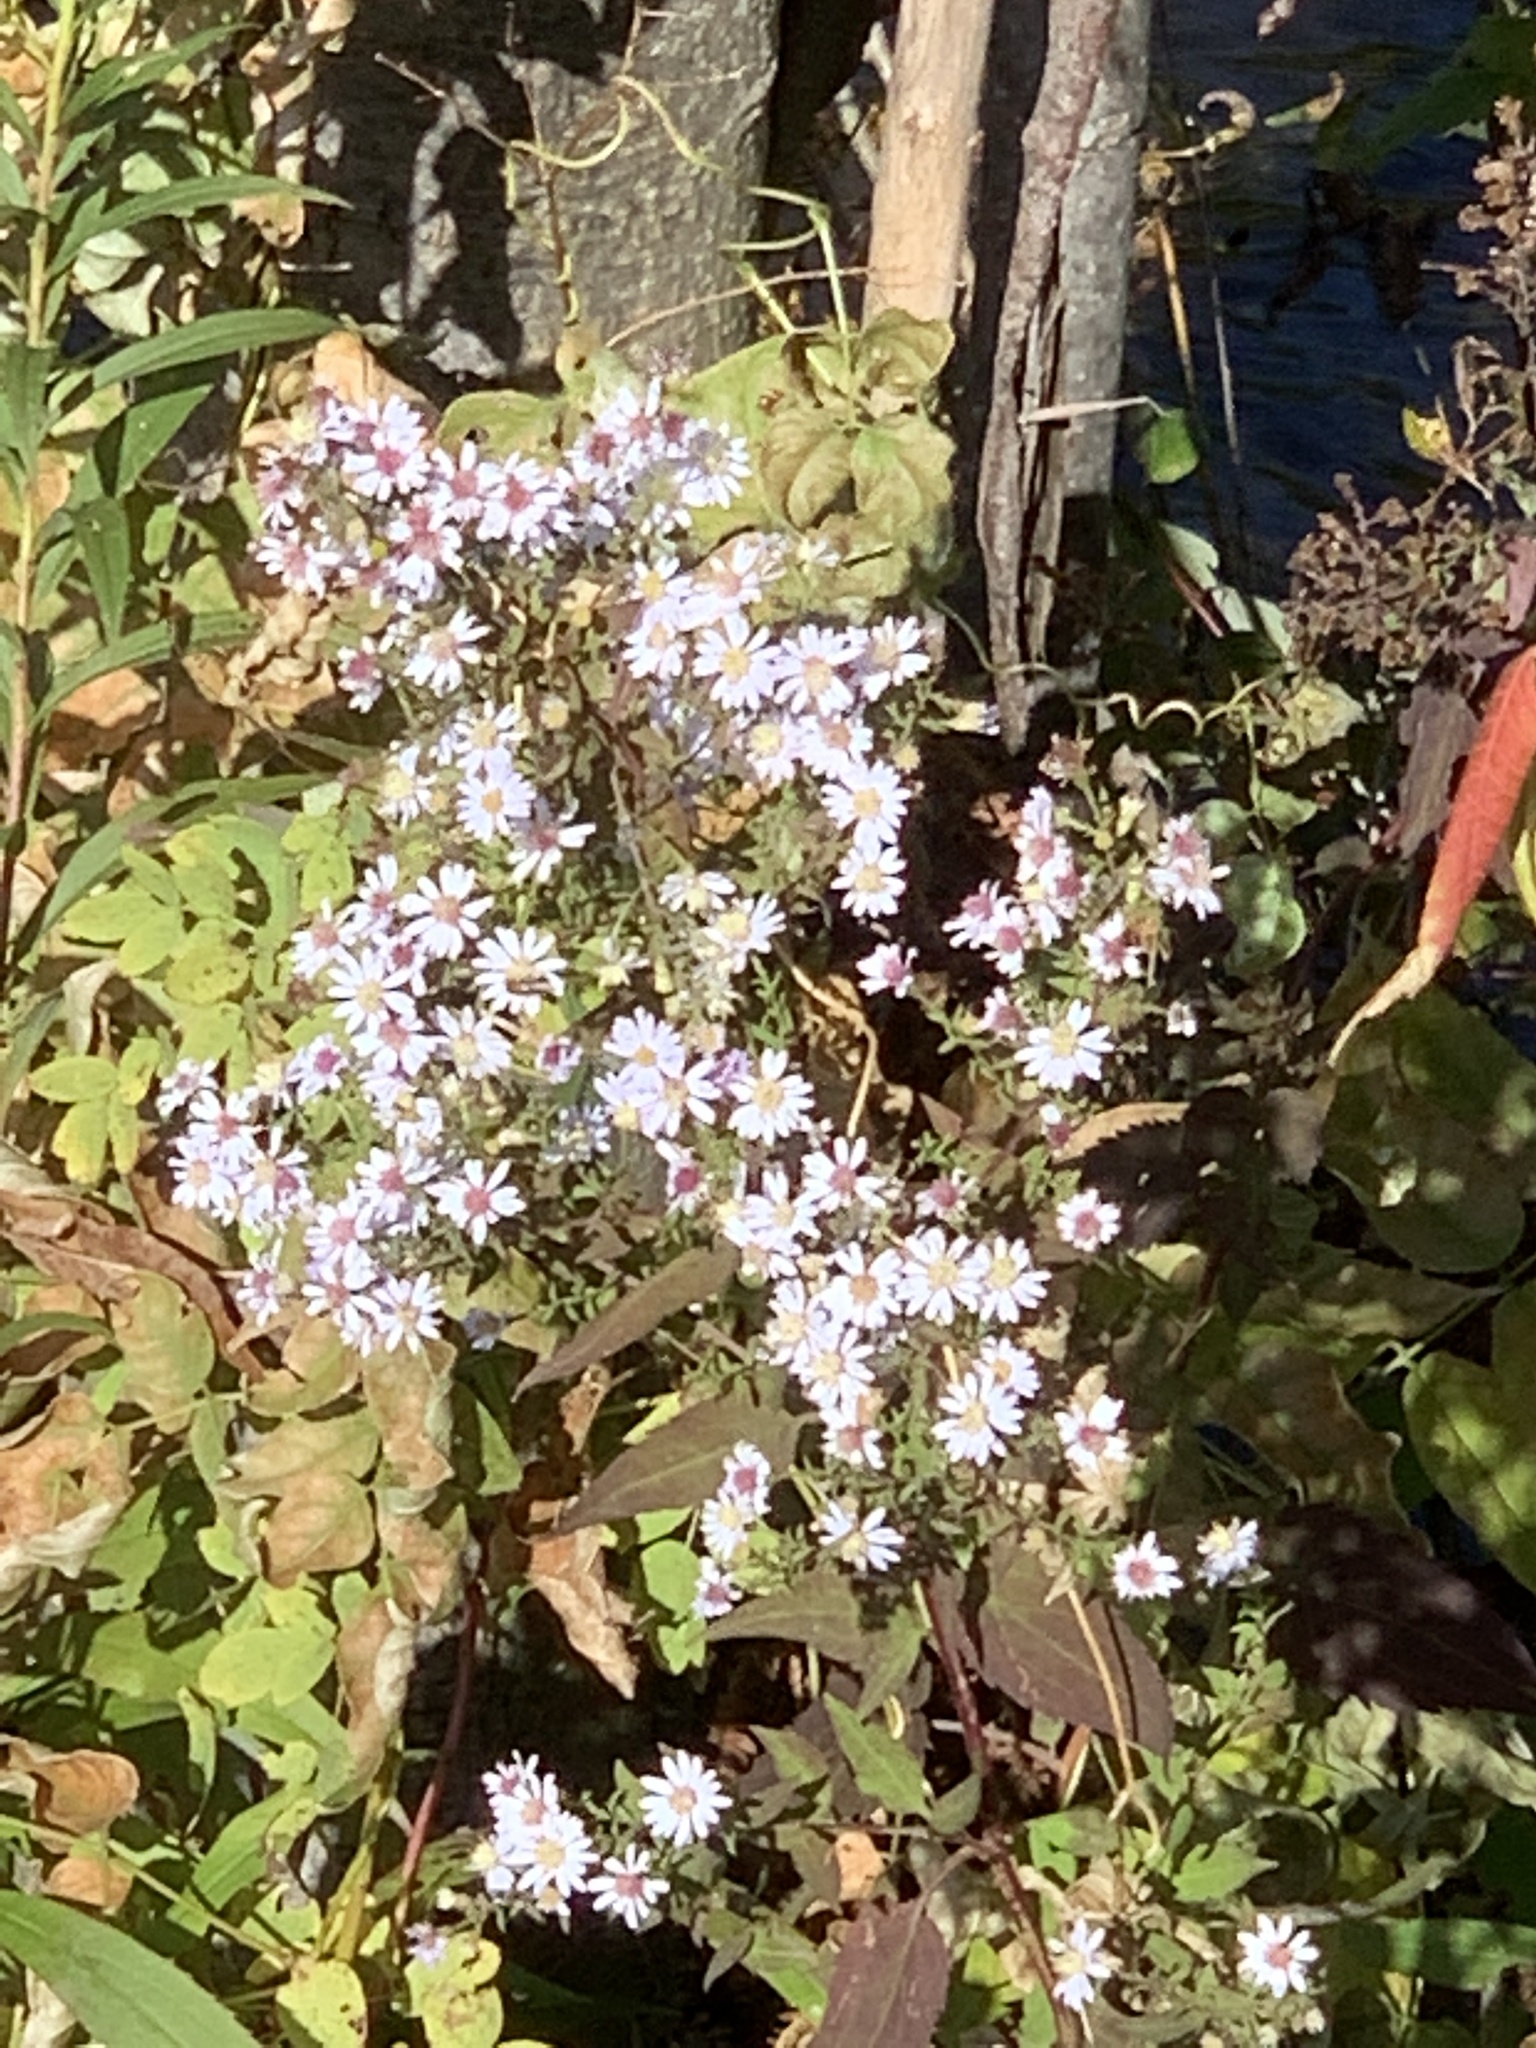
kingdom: Plantae
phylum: Tracheophyta
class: Magnoliopsida
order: Asterales
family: Asteraceae
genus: Symphyotrichum
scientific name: Symphyotrichum cordifolium
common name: Beeweed
